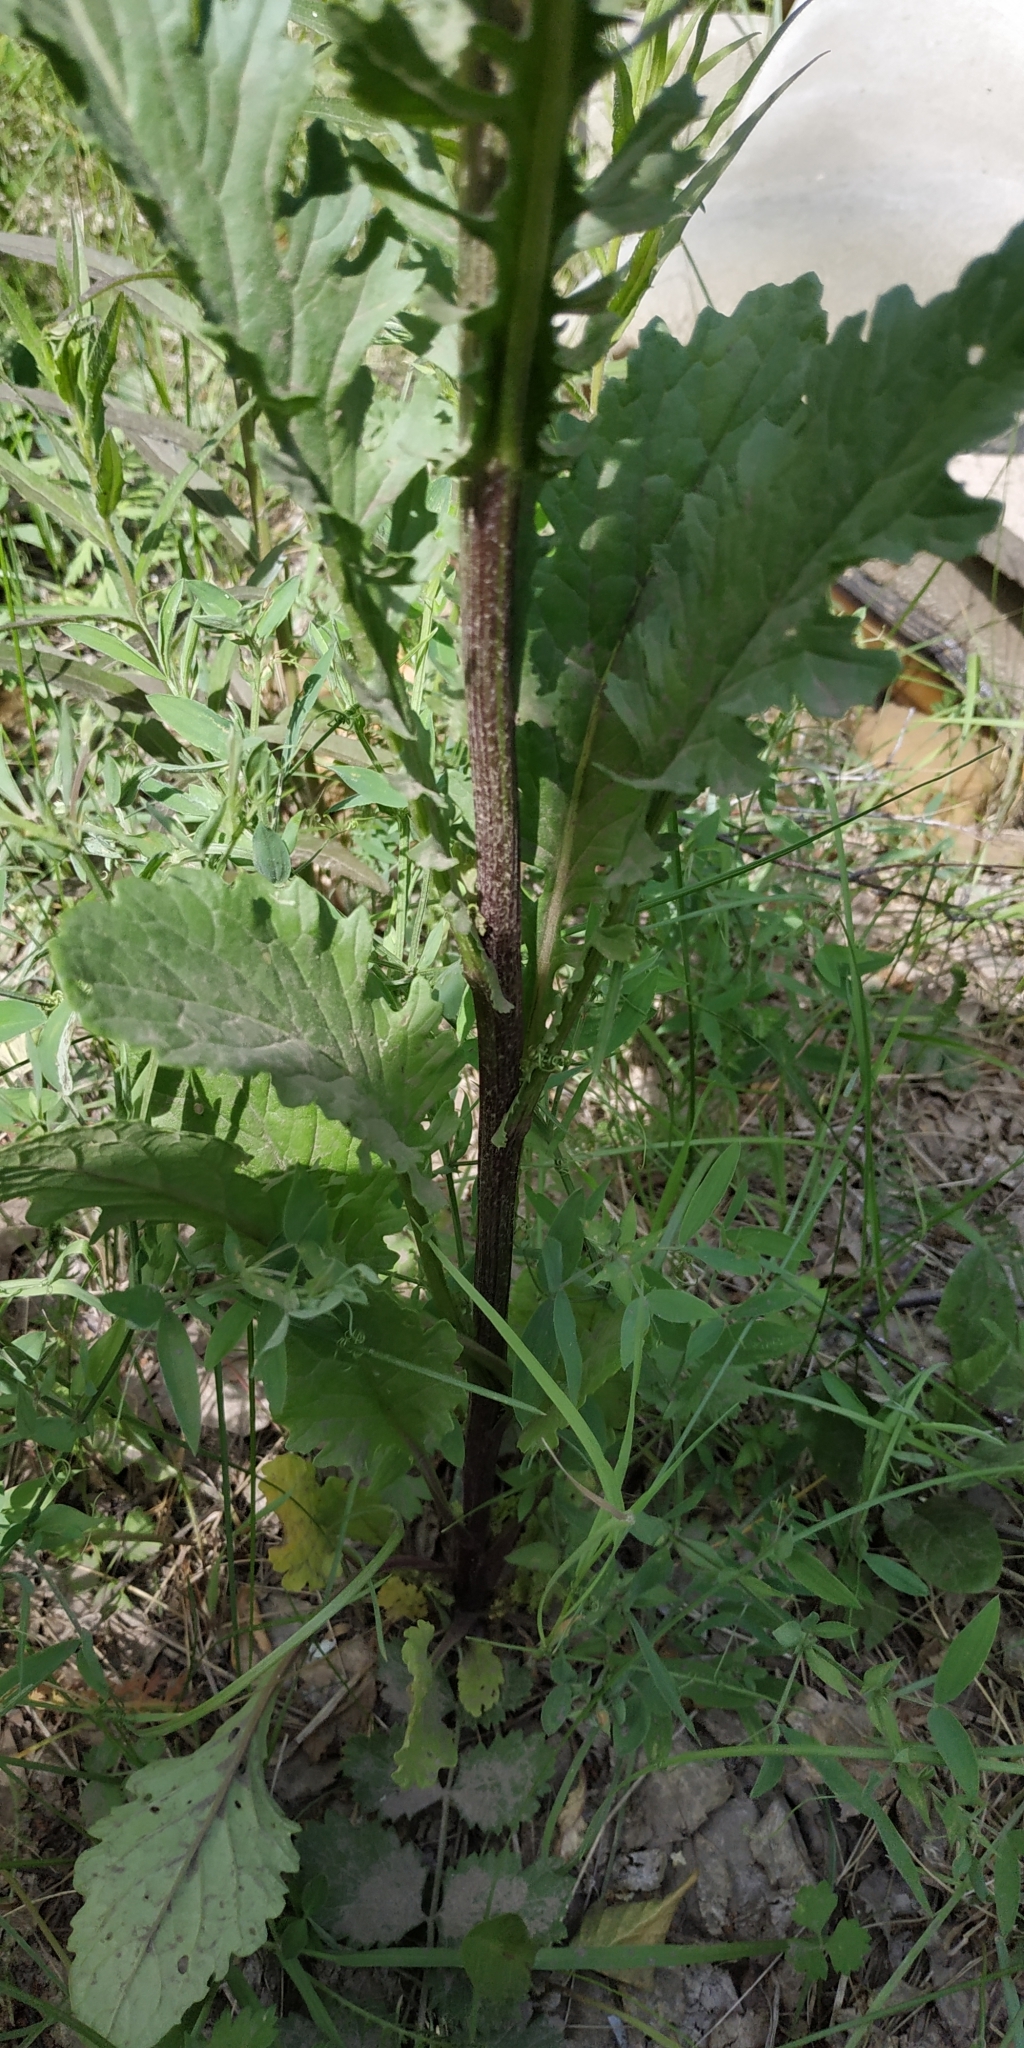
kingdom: Plantae
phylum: Tracheophyta
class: Magnoliopsida
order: Asterales
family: Asteraceae
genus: Jacobaea
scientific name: Jacobaea vulgaris
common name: Stinking willie
